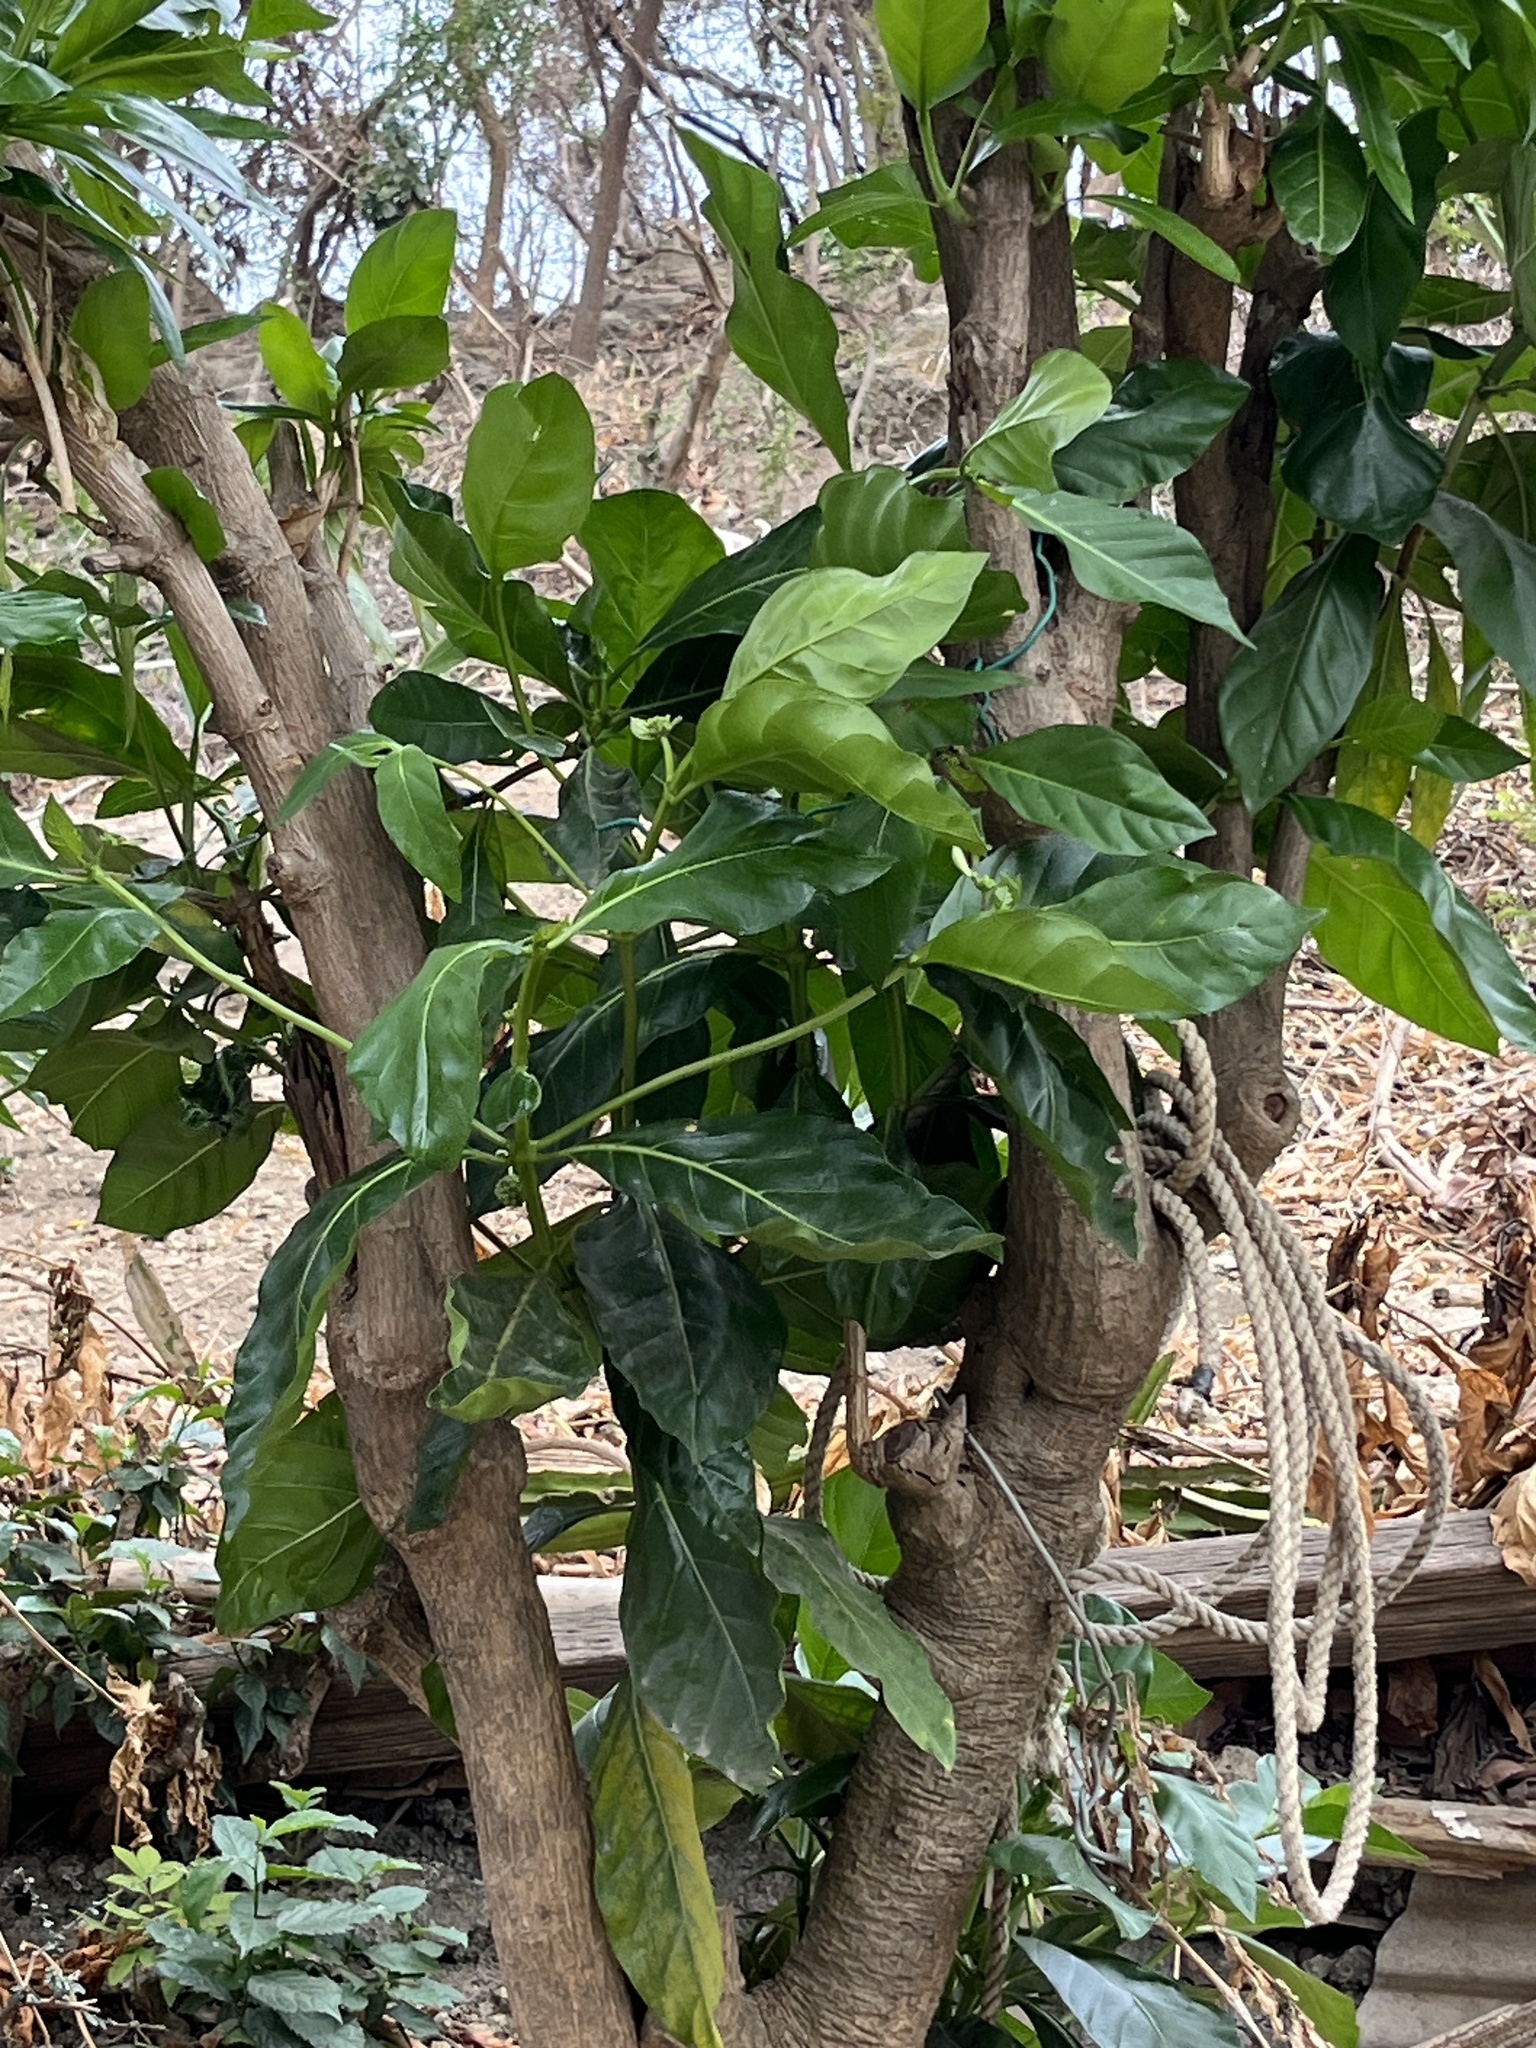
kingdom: Plantae
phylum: Tracheophyta
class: Magnoliopsida
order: Gentianales
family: Rubiaceae
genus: Morinda
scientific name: Morinda citrifolia
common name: Indian-mulberry
